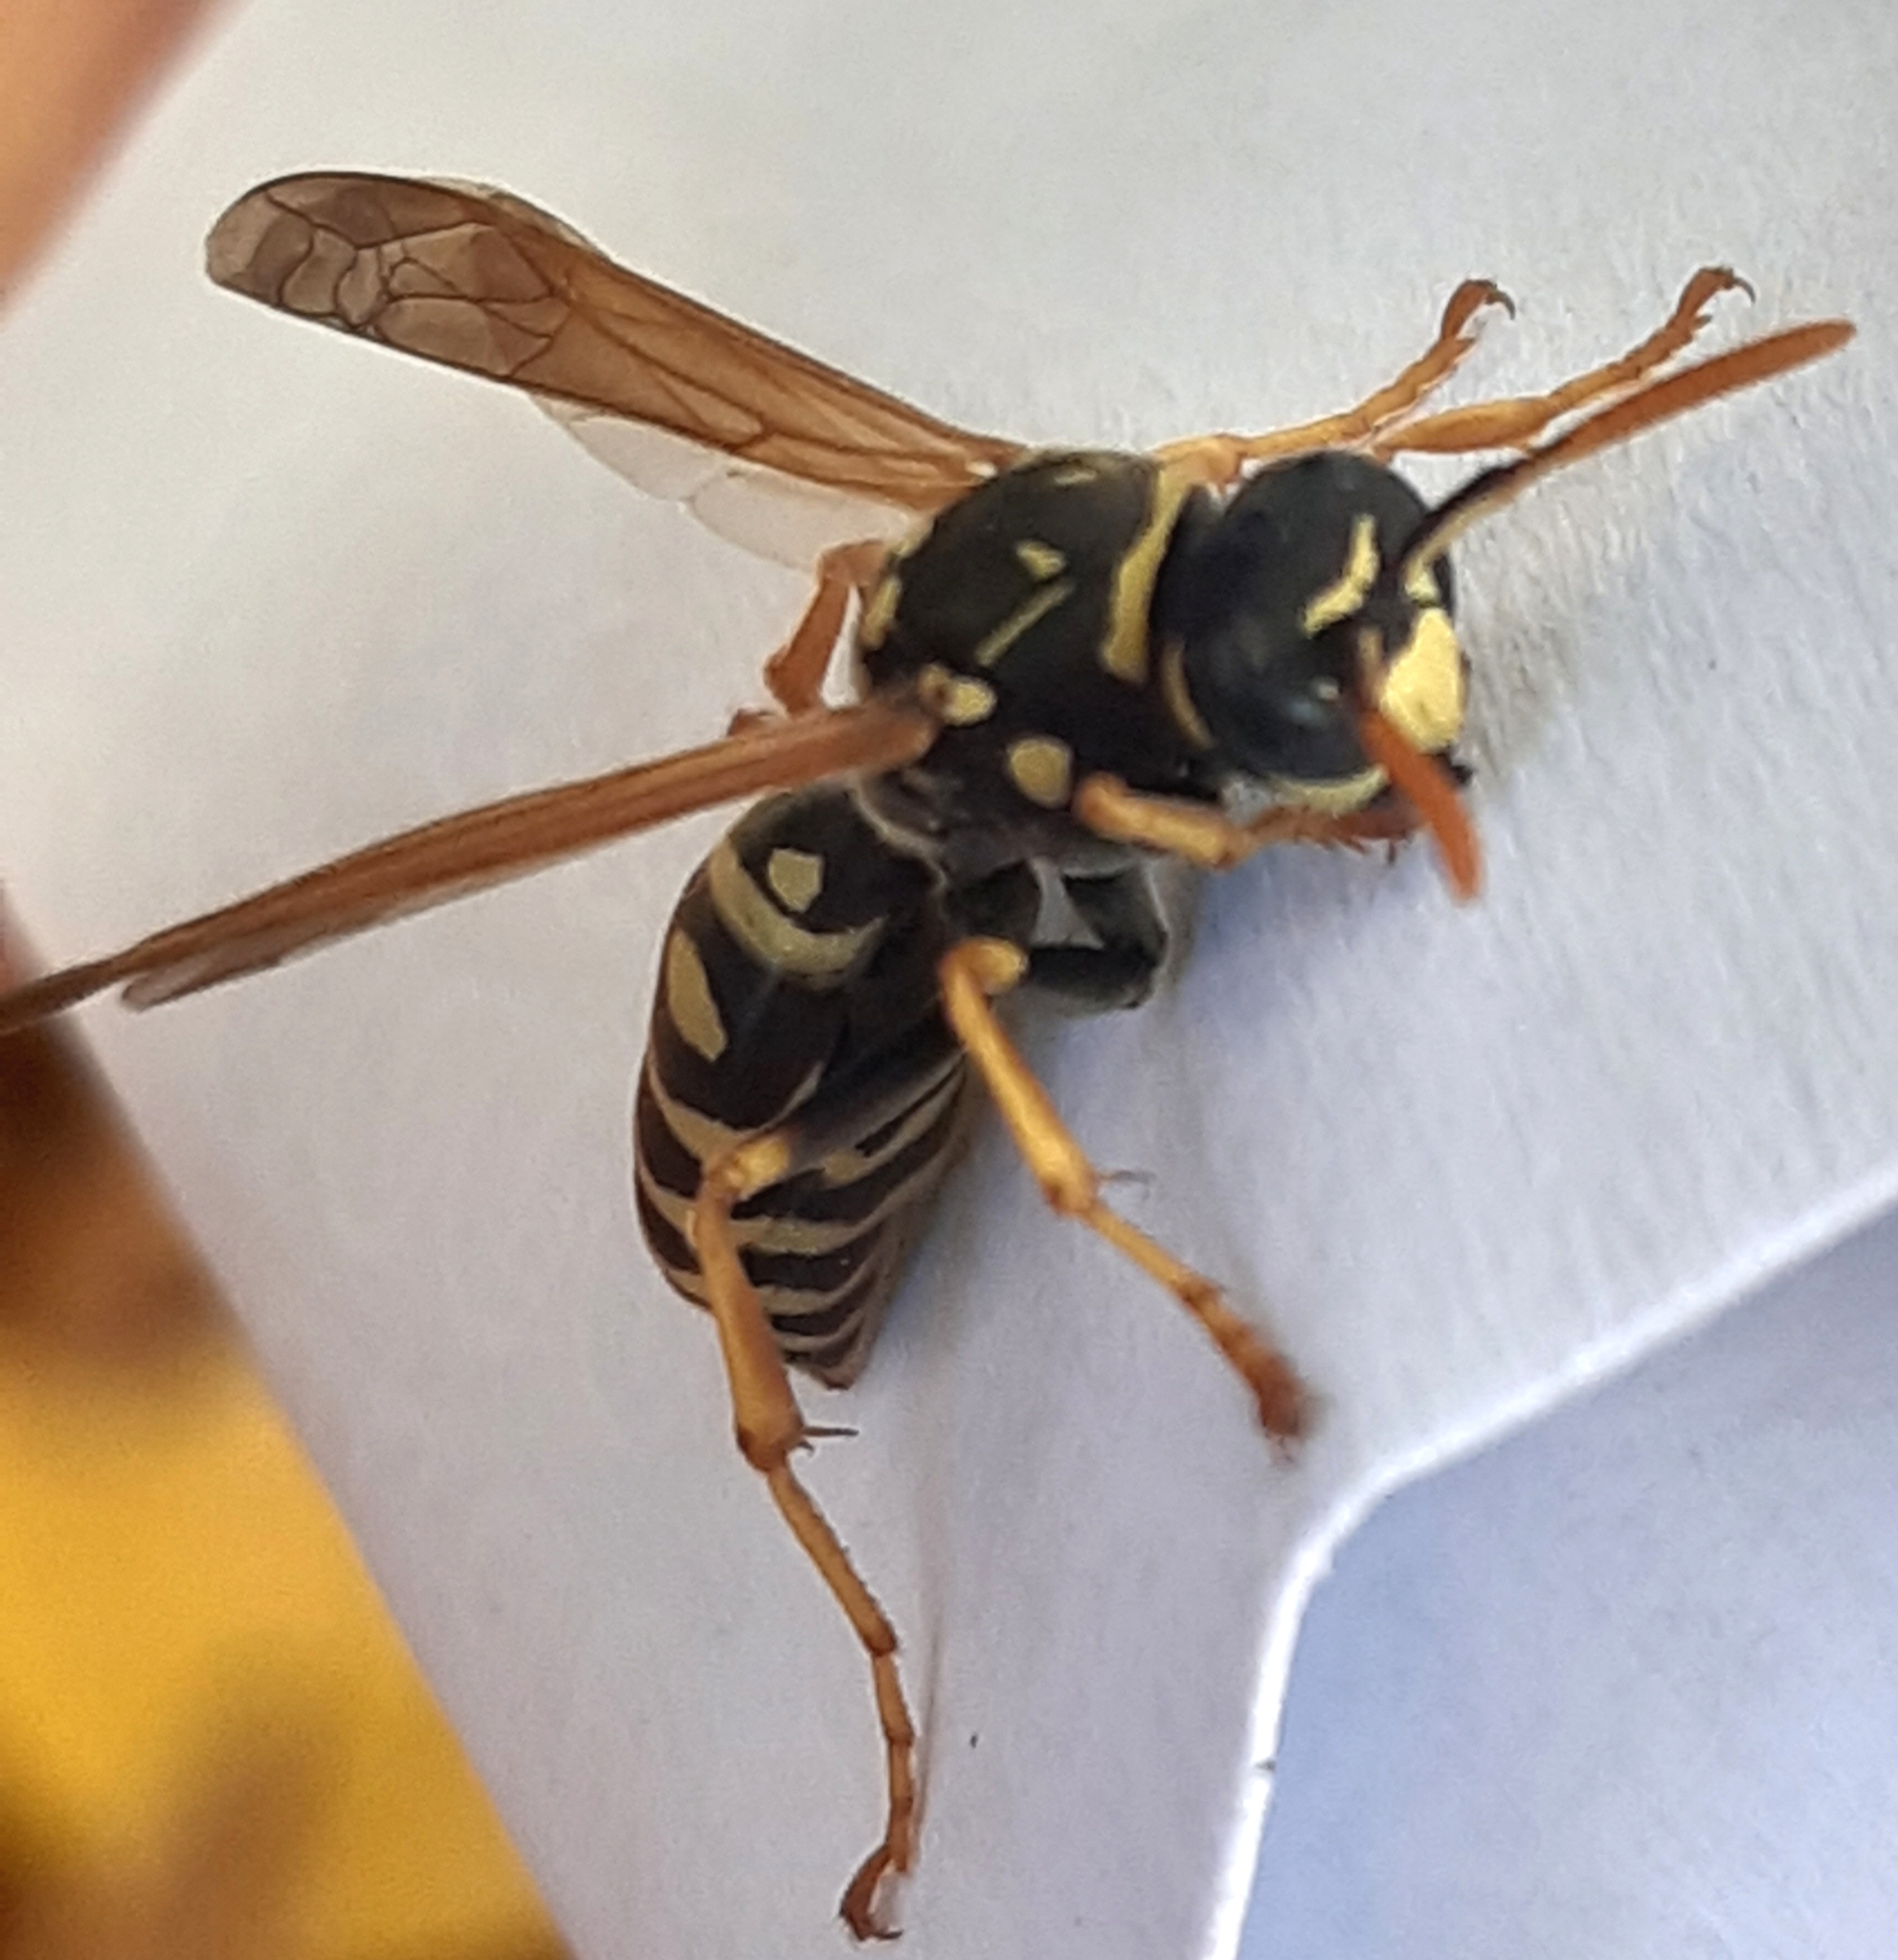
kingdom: Animalia
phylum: Arthropoda
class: Insecta
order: Hymenoptera
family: Eumenidae
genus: Polistes
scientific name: Polistes dominula
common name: Paper wasp
